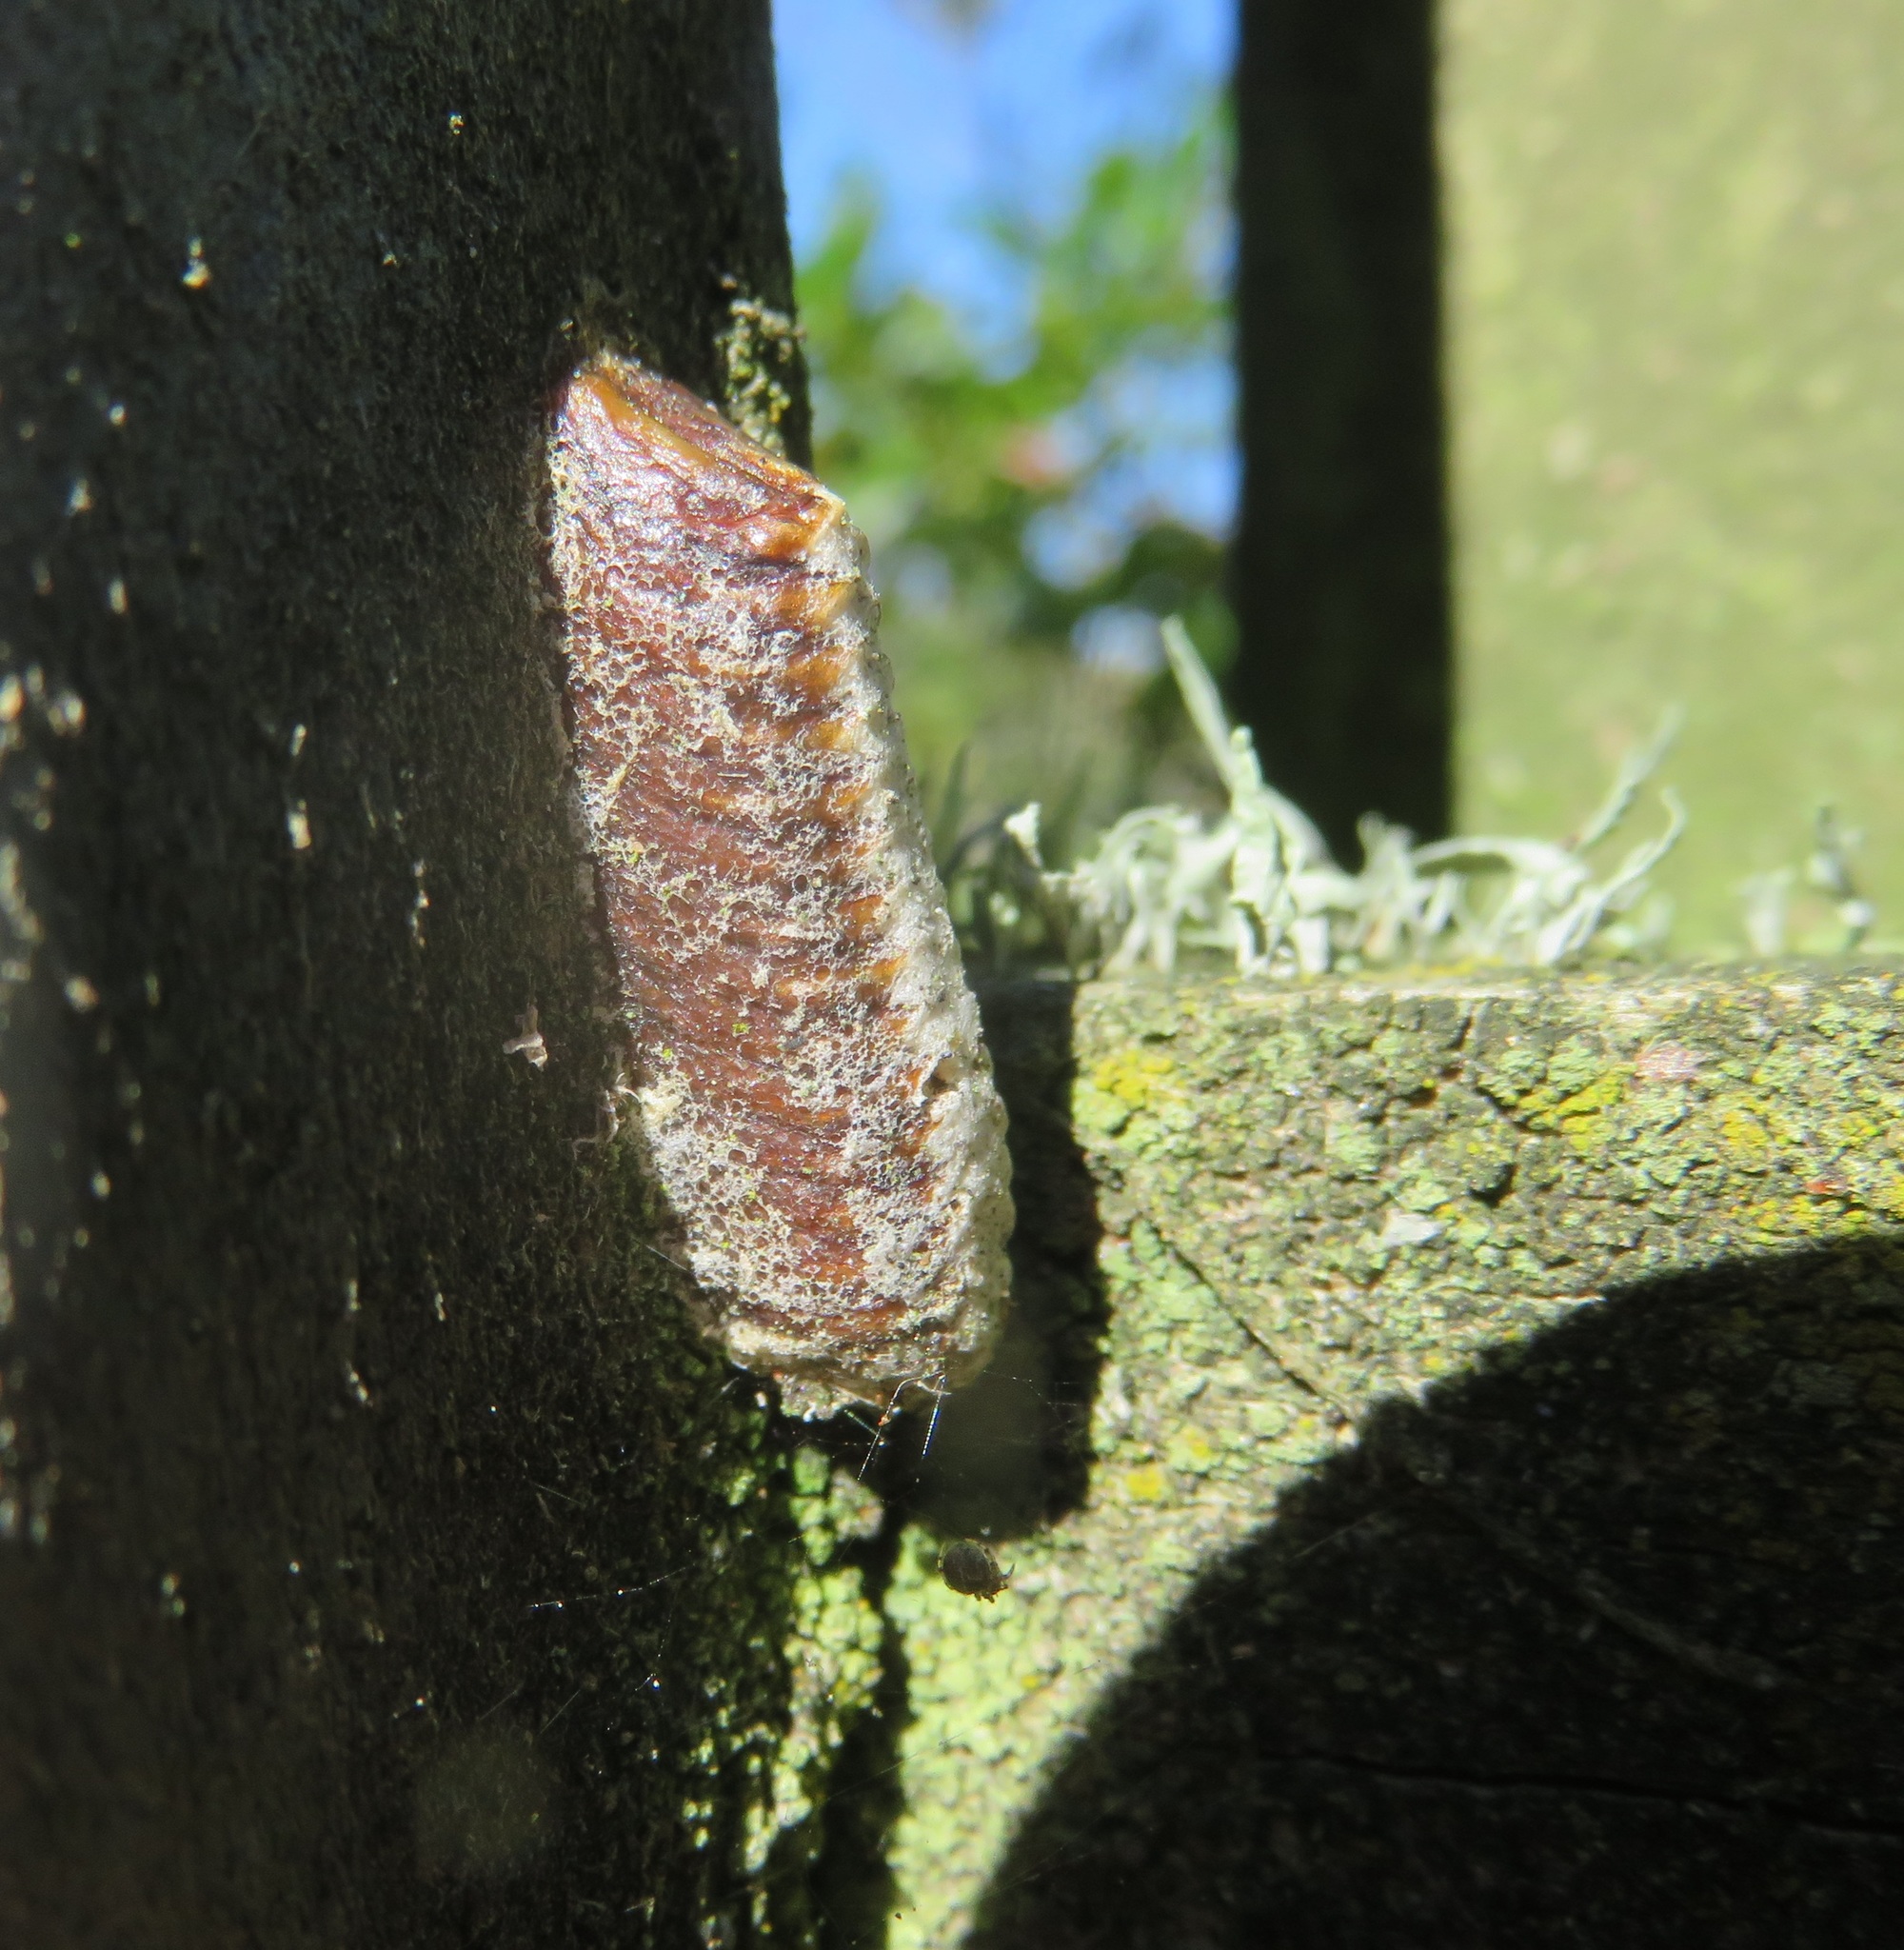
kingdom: Animalia
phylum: Arthropoda
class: Insecta
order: Mantodea
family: Mantidae
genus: Orthodera
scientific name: Orthodera novaezealandiae
